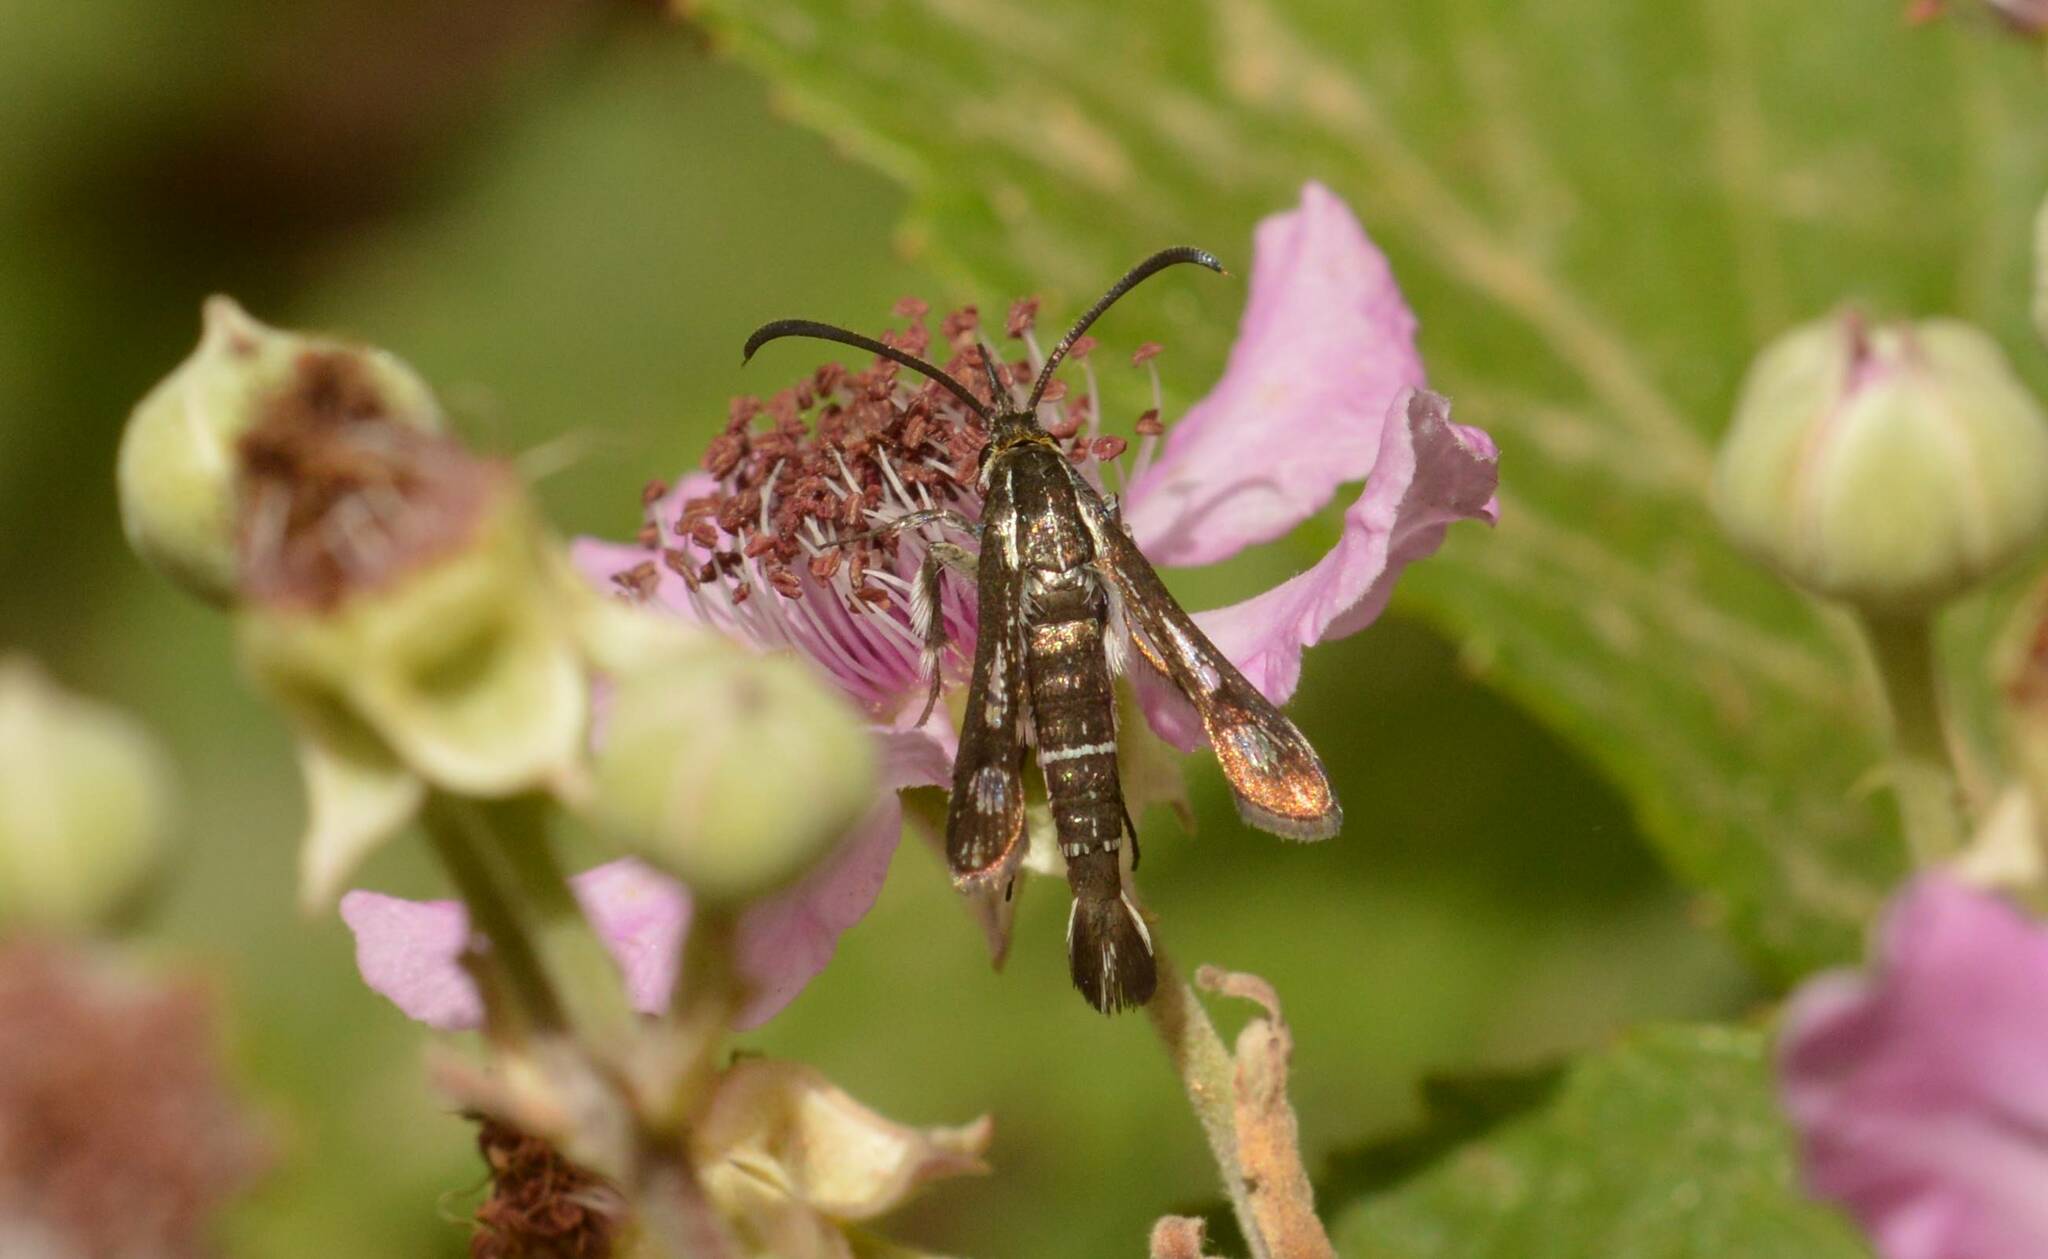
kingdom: Animalia
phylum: Arthropoda
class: Insecta
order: Lepidoptera
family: Sesiidae
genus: Pyropteron
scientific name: Pyropteron leucomelaena
